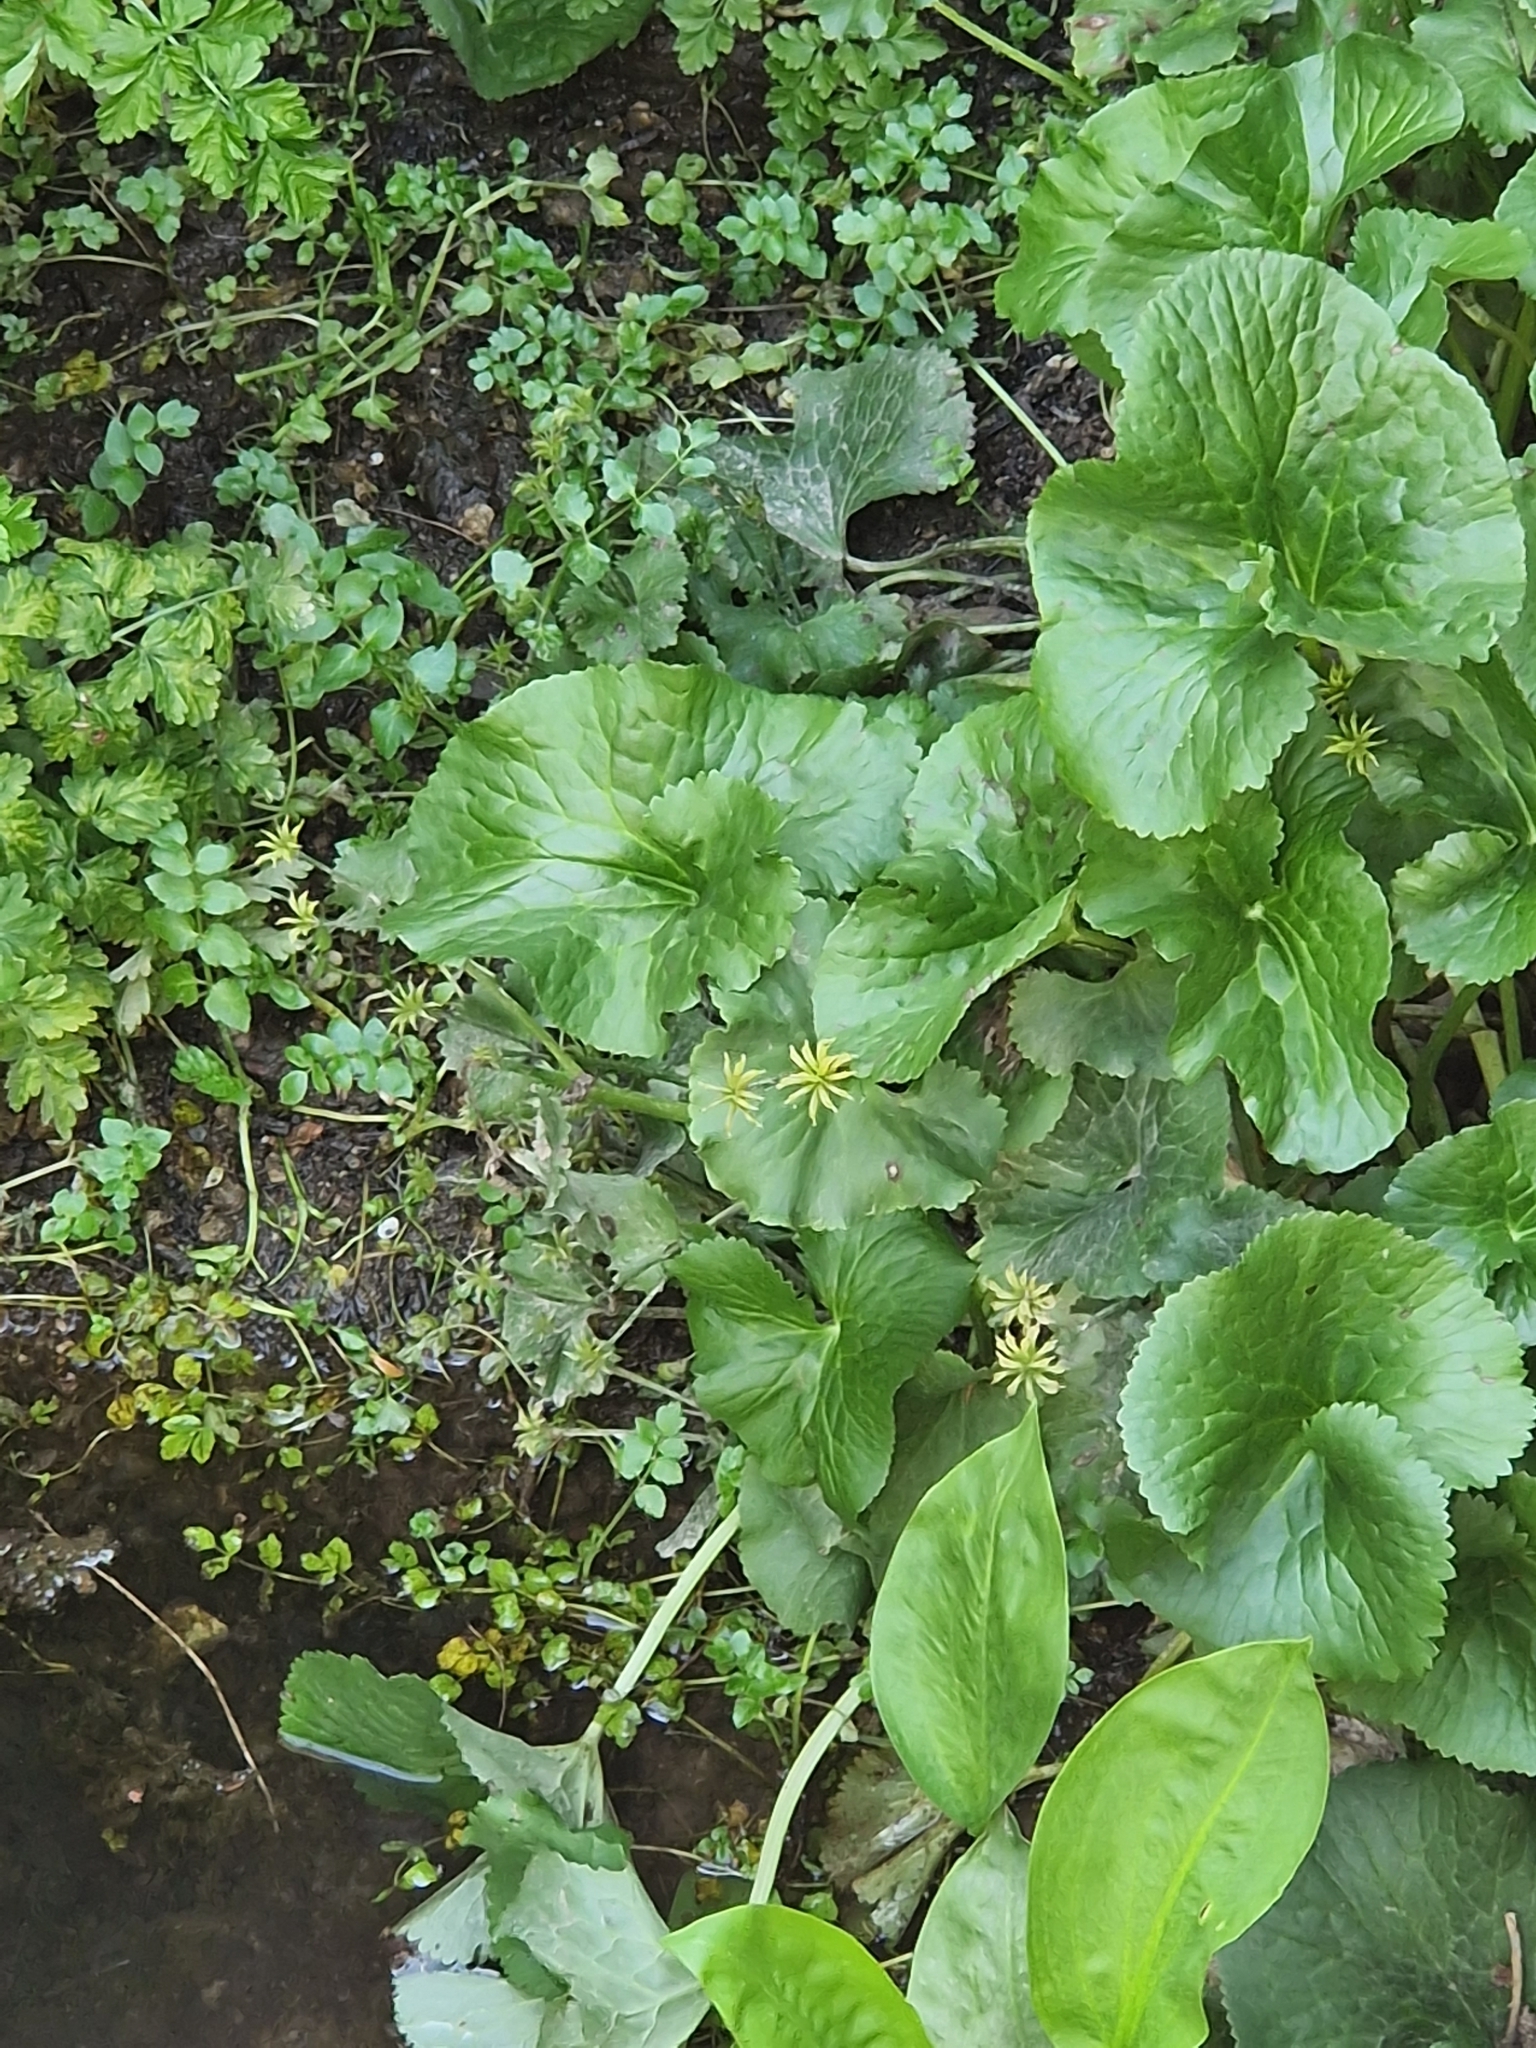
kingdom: Plantae
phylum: Tracheophyta
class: Magnoliopsida
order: Ranunculales
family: Ranunculaceae
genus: Caltha
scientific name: Caltha palustris
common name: Marsh marigold
